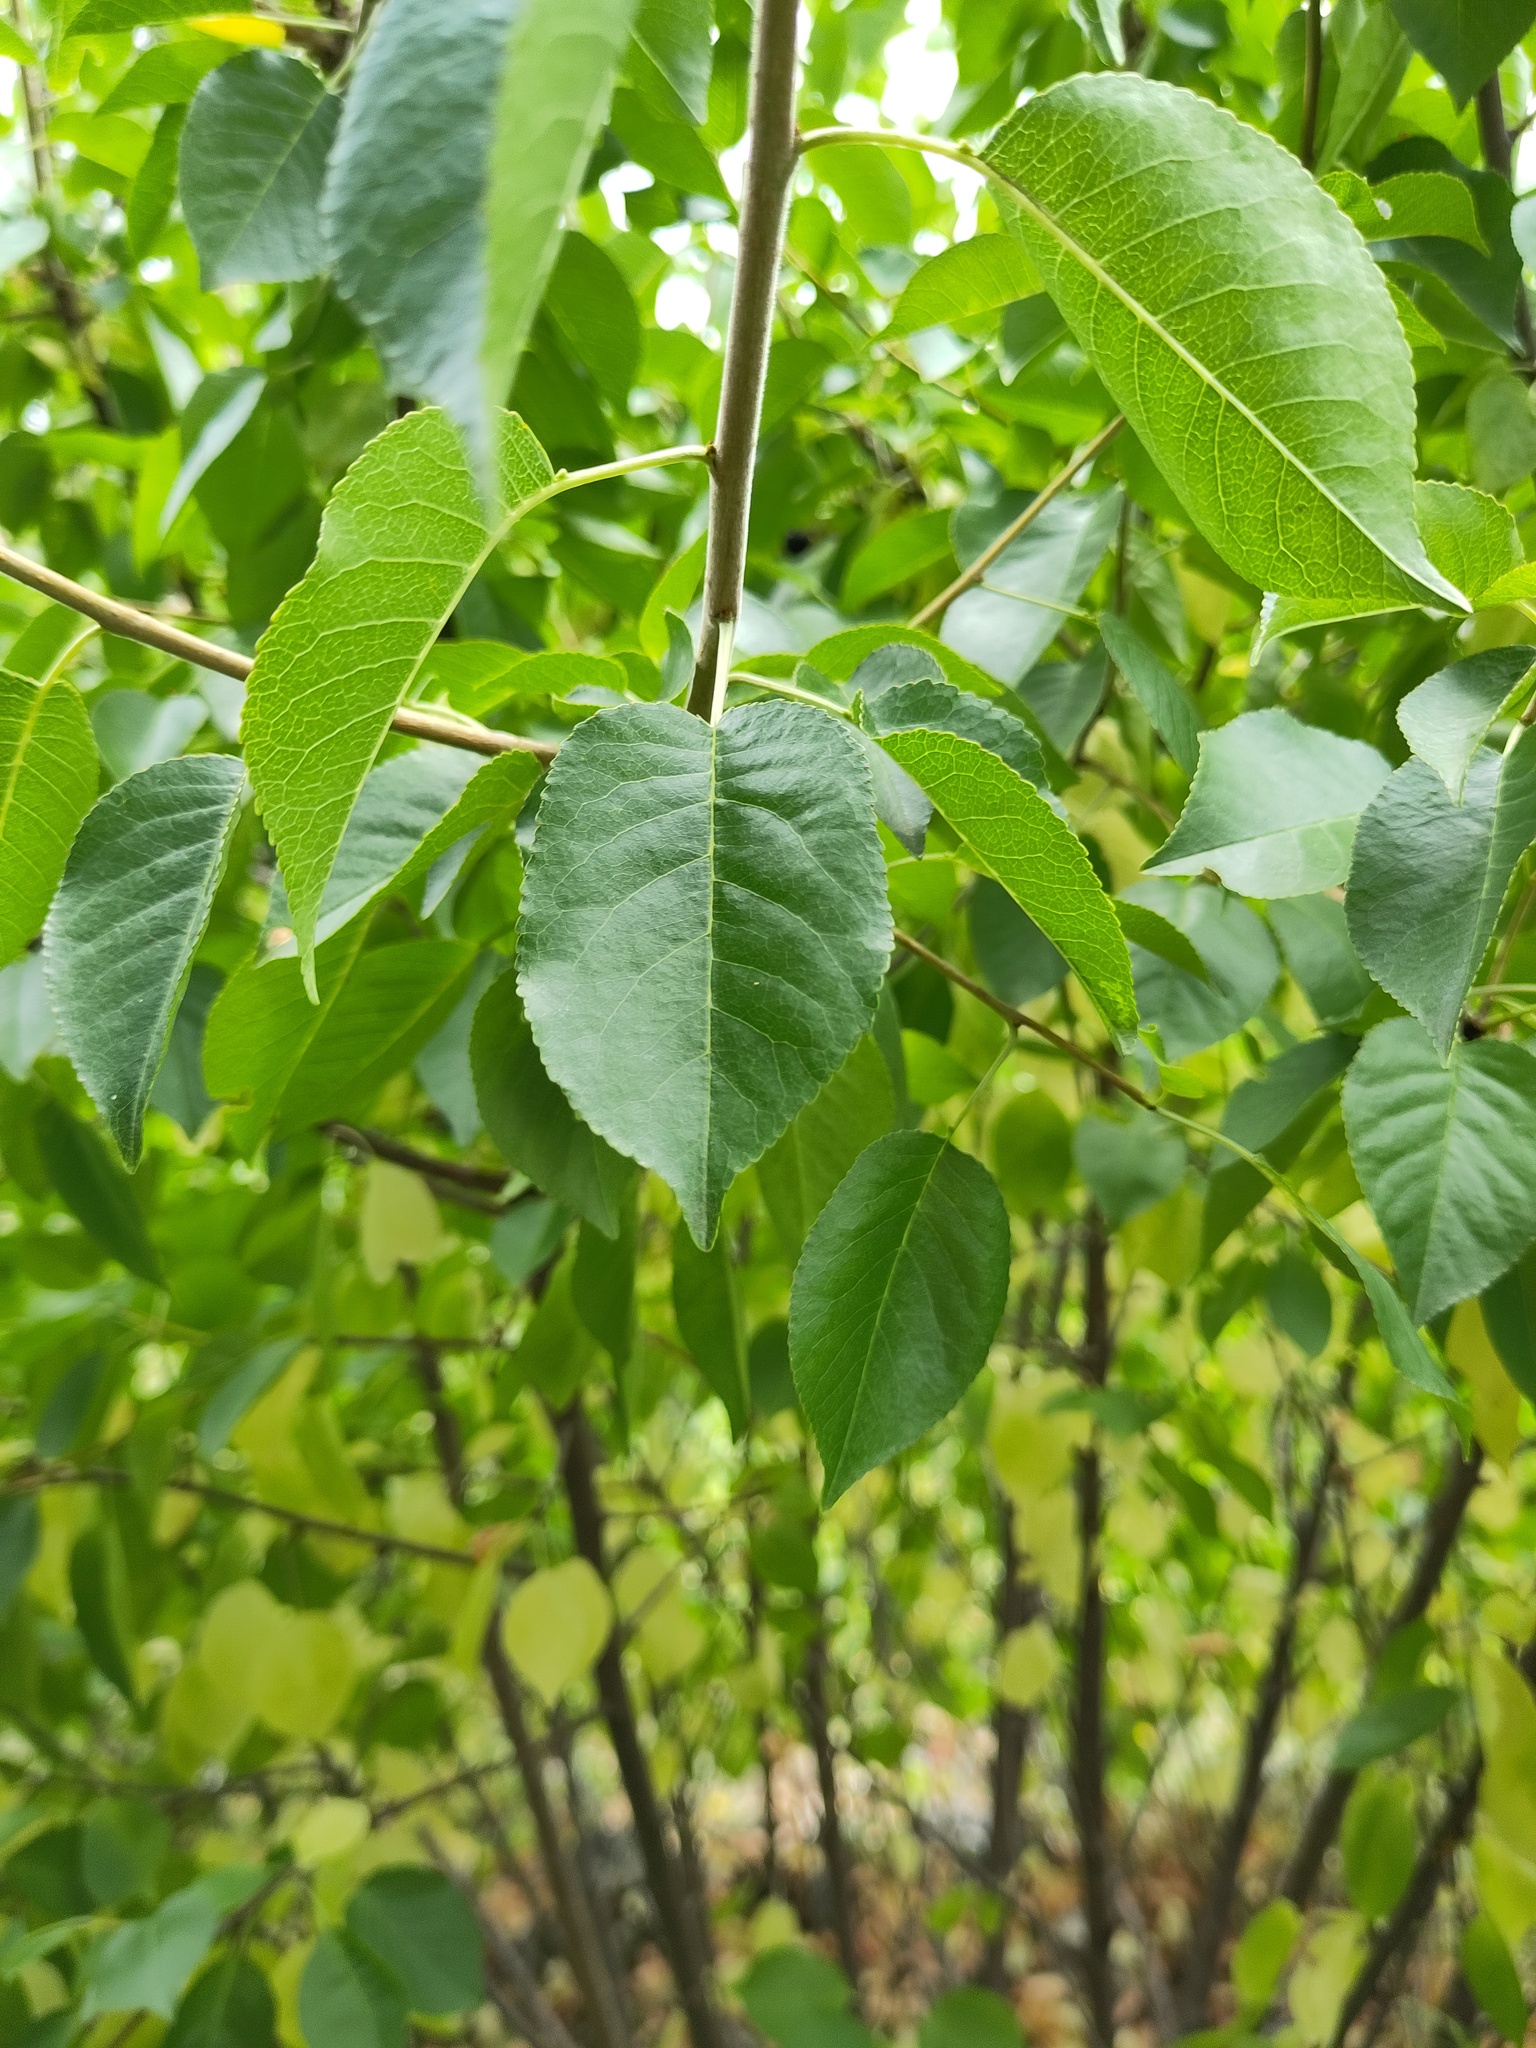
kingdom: Plantae
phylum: Tracheophyta
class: Magnoliopsida
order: Rosales
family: Rosaceae
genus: Prunus
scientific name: Prunus mahaleb
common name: Mahaleb cherry
